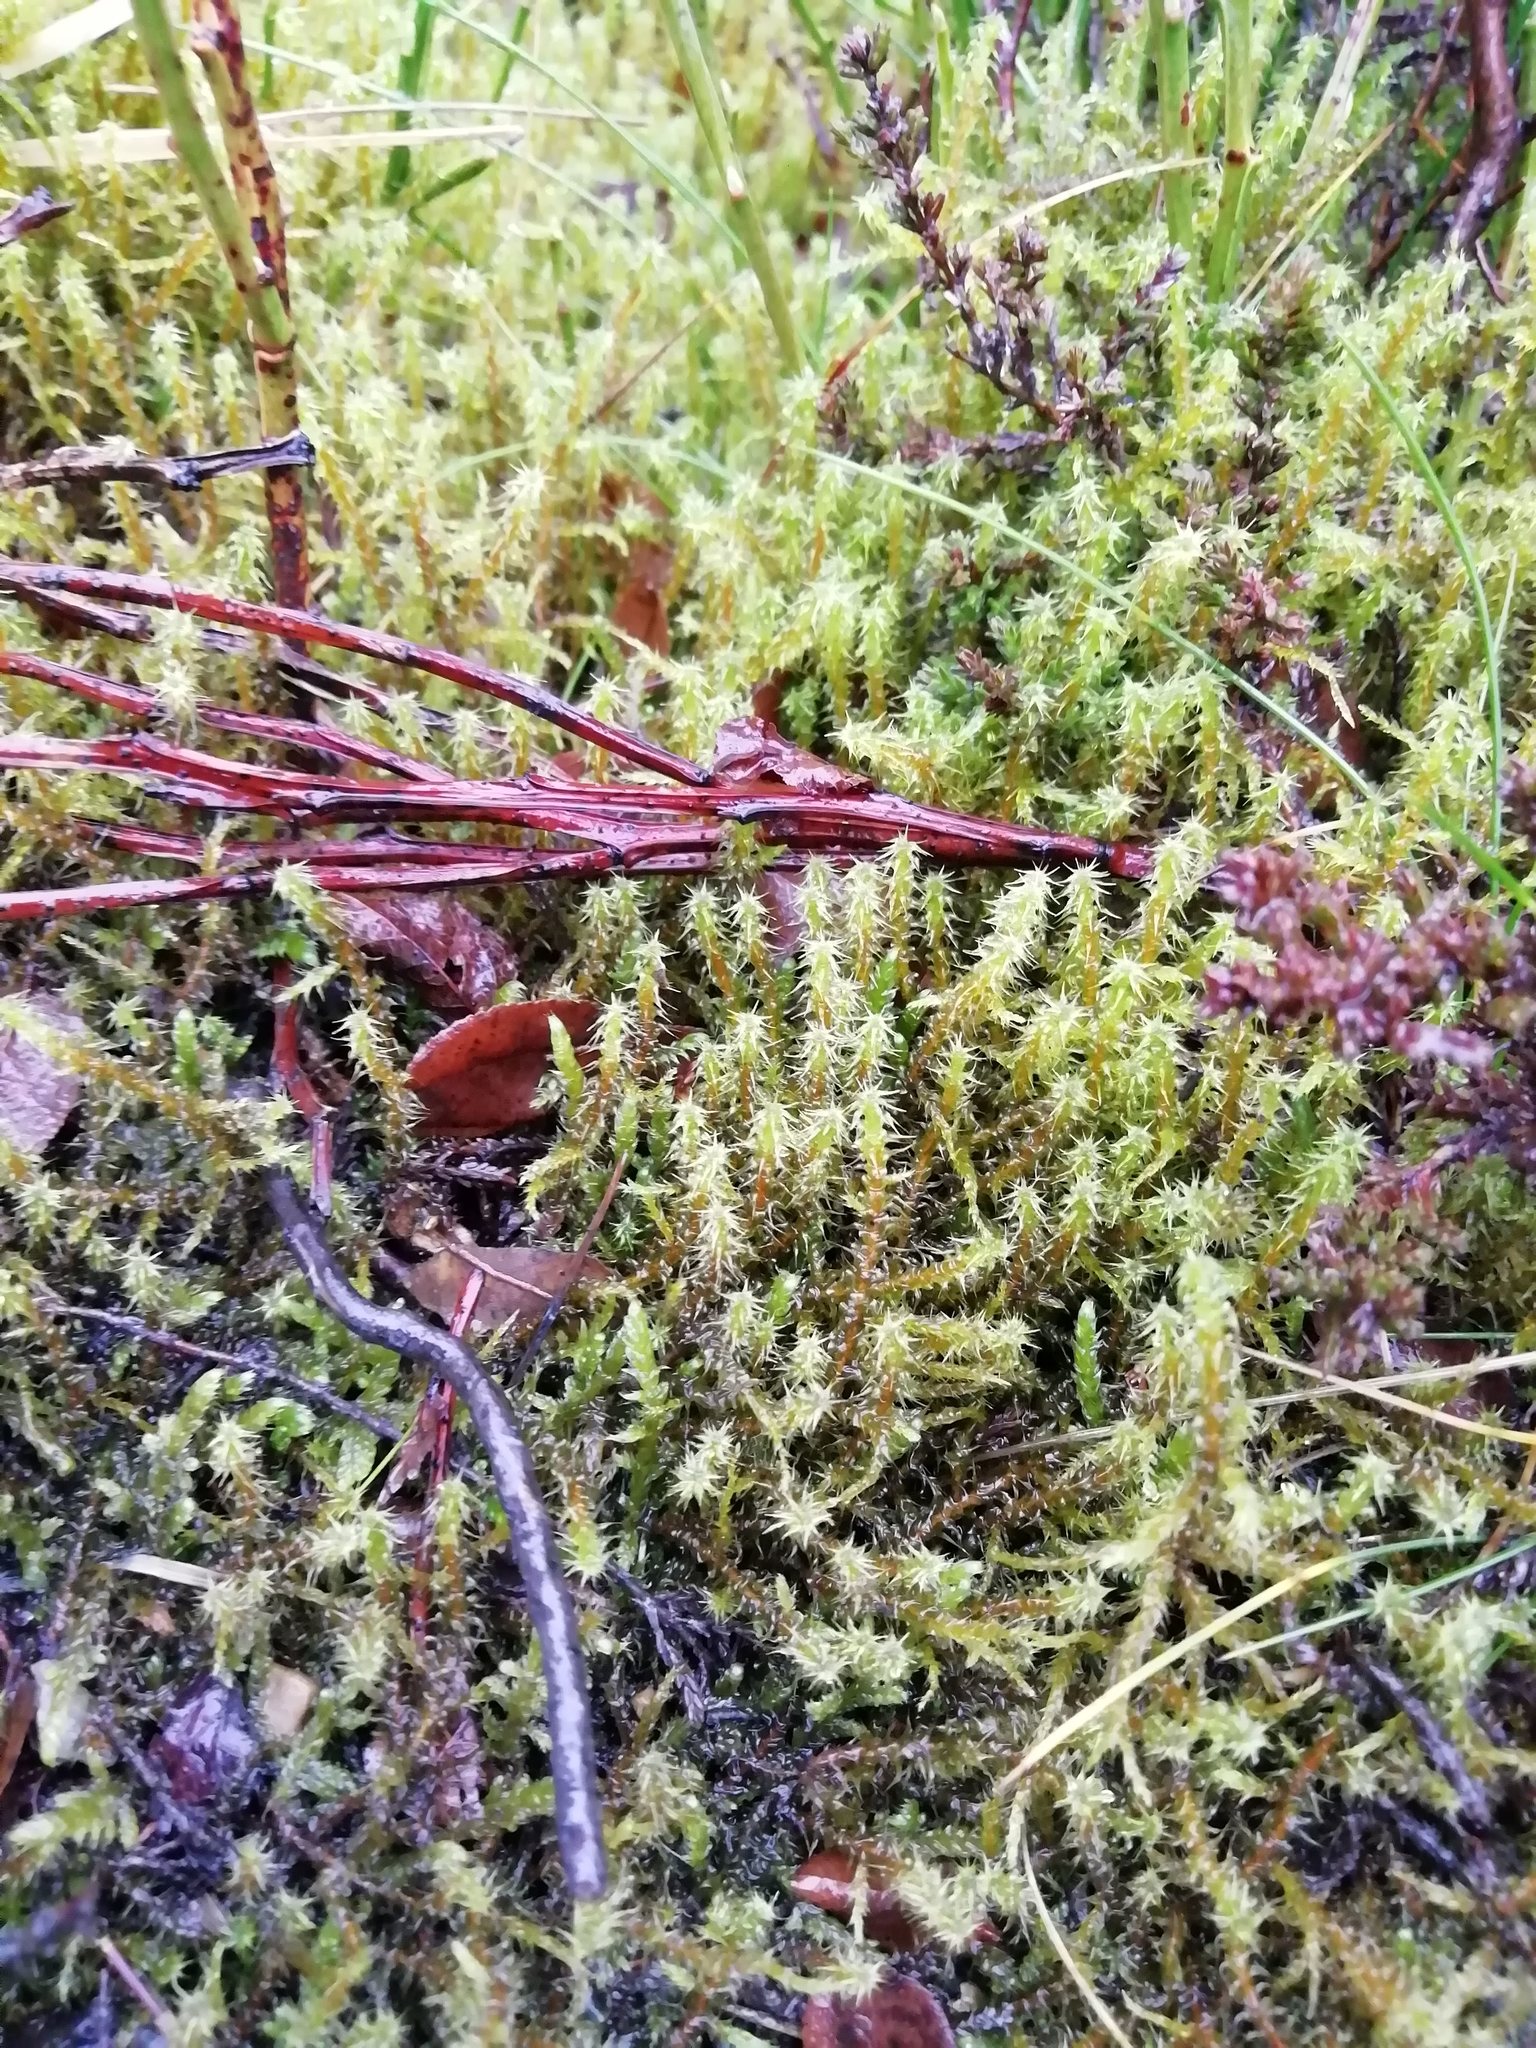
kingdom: Plantae
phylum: Bryophyta
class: Bryopsida
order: Hypnales
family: Hylocomiaceae
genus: Rhytidiadelphus
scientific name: Rhytidiadelphus squarrosus
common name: Springy turf-moss
